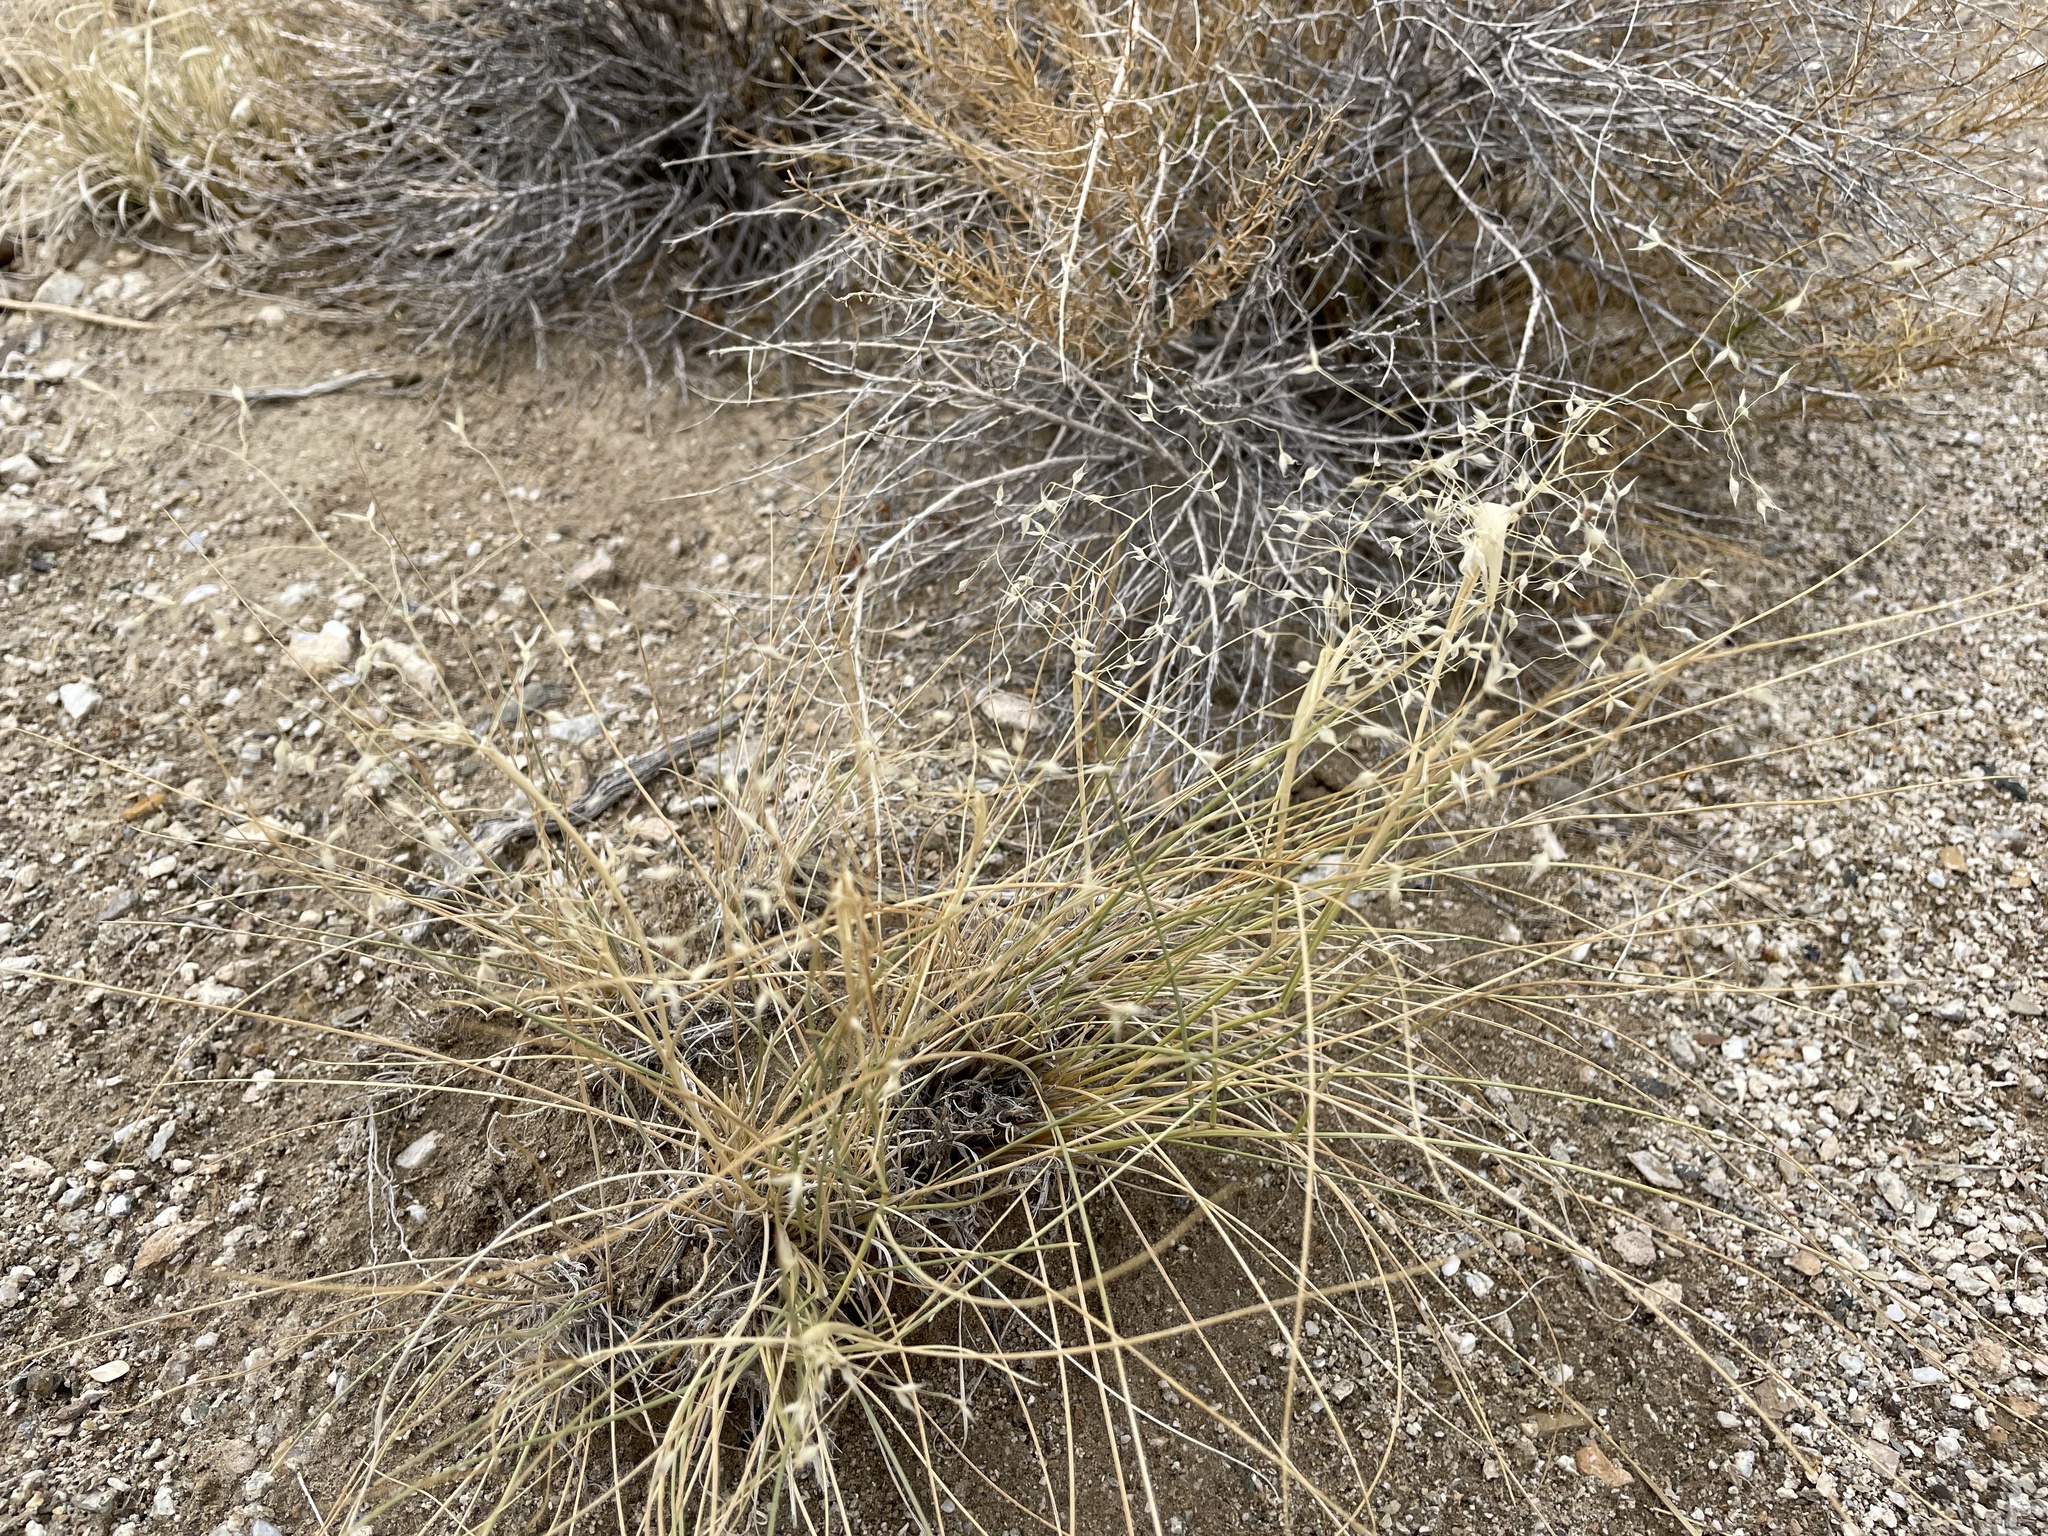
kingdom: Plantae
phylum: Tracheophyta
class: Liliopsida
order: Poales
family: Poaceae
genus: Eriocoma
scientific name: Eriocoma hymenoides
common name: Indian mountain ricegrass
